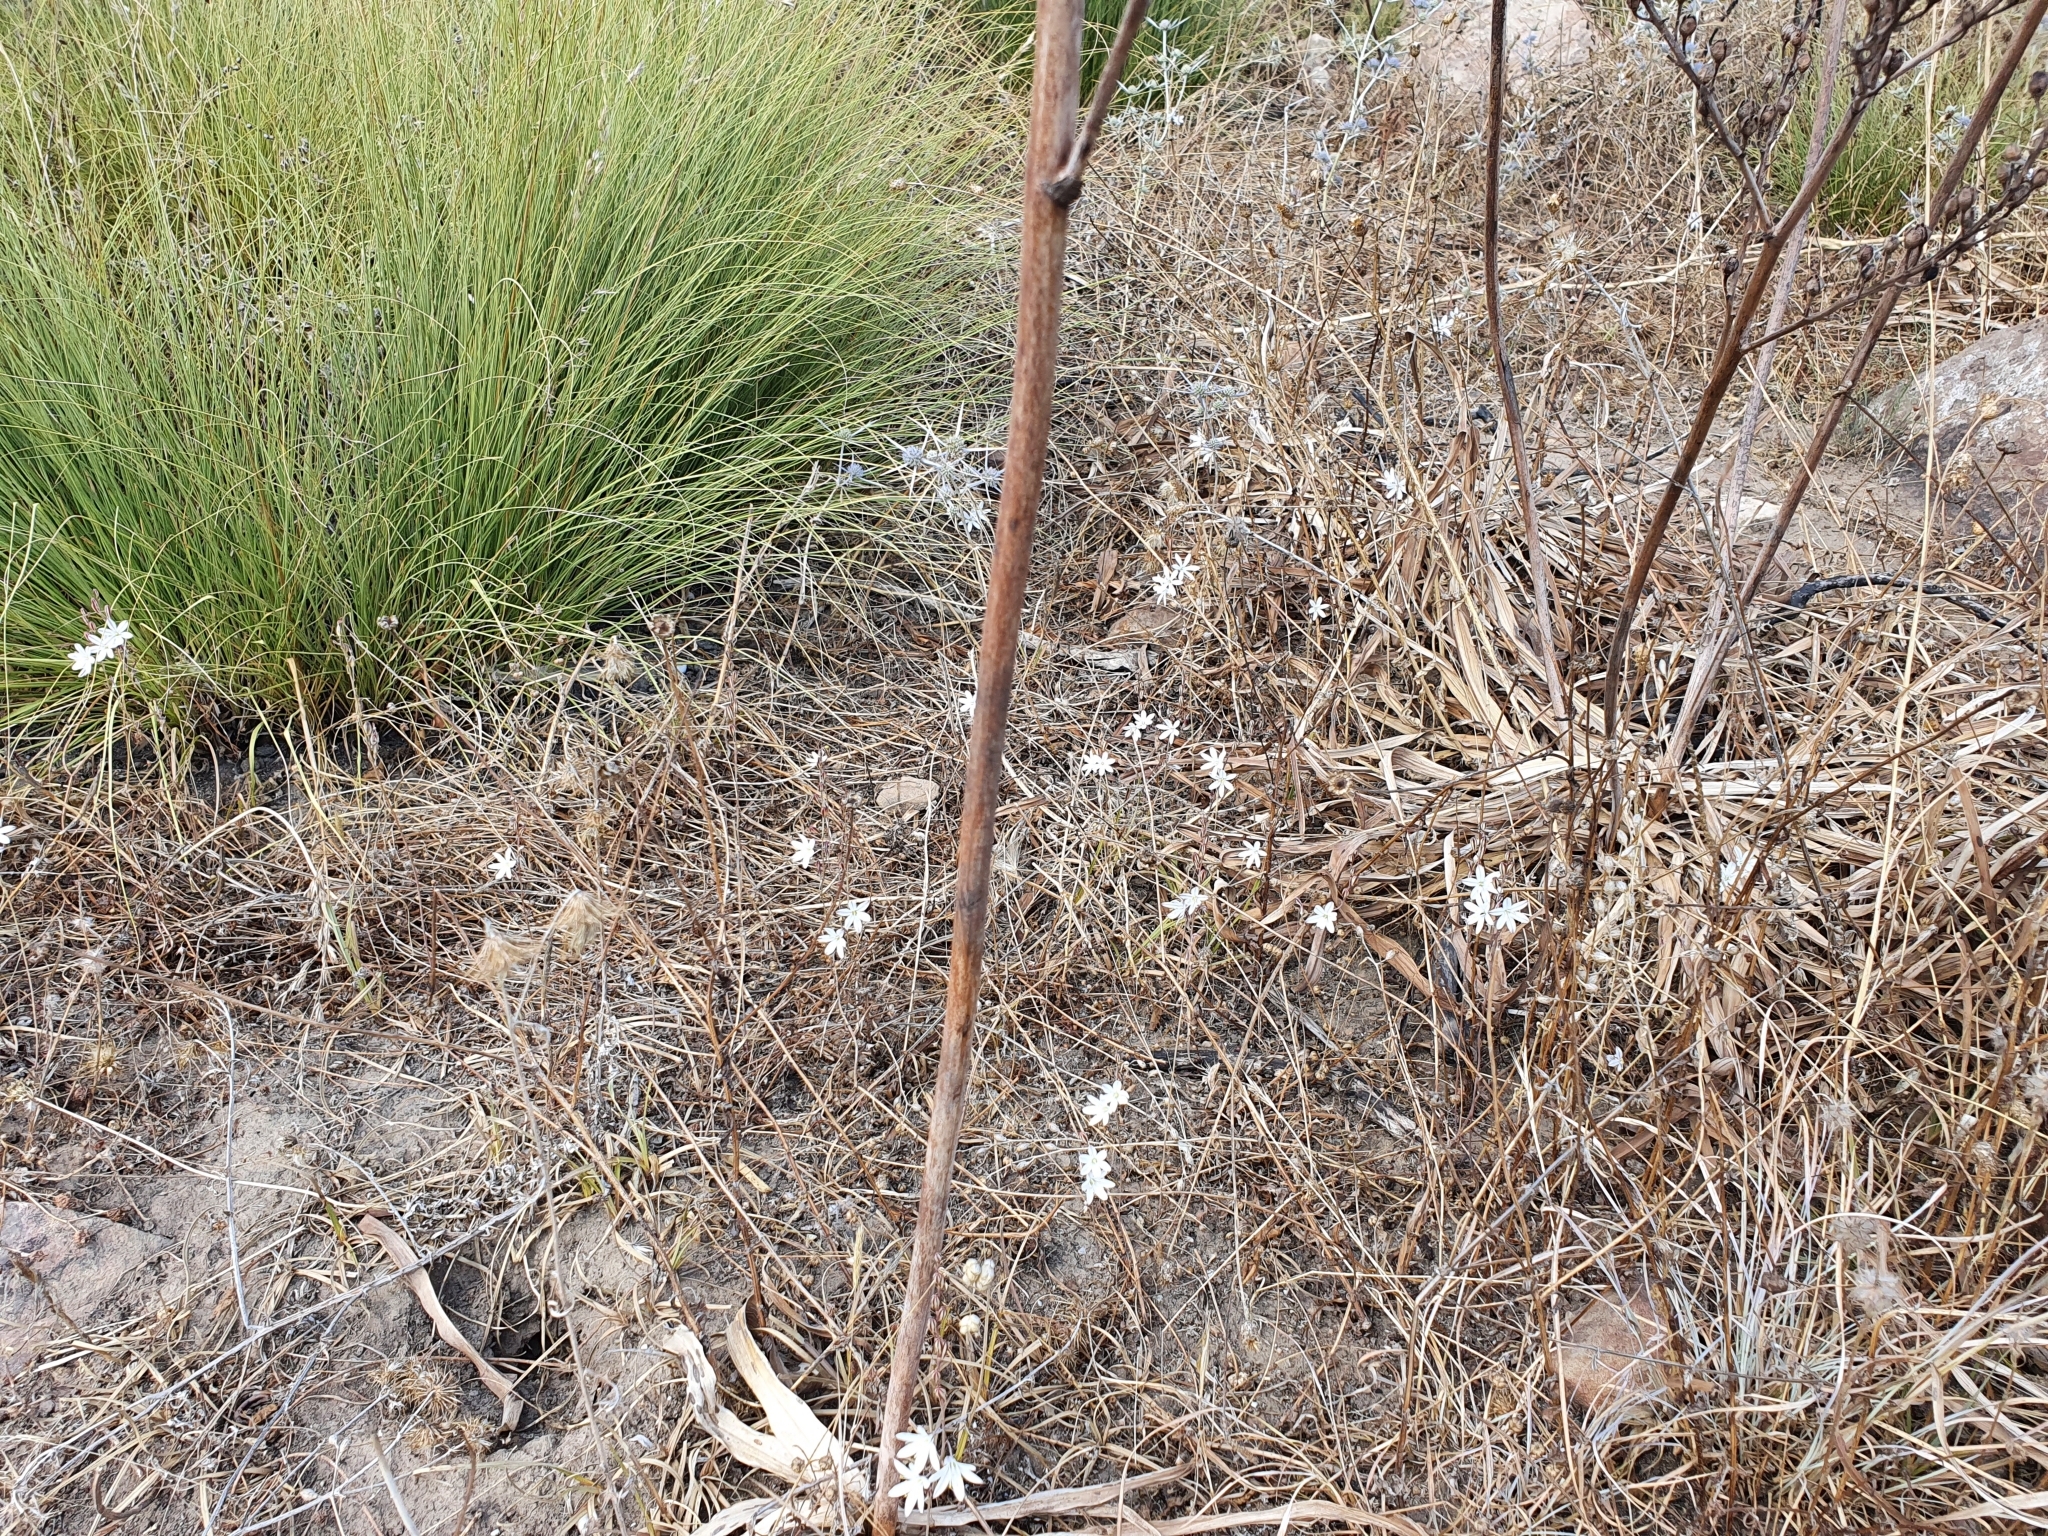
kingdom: Plantae
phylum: Tracheophyta
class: Liliopsida
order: Asparagales
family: Asparagaceae
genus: Drimia
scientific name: Drimia fugax
